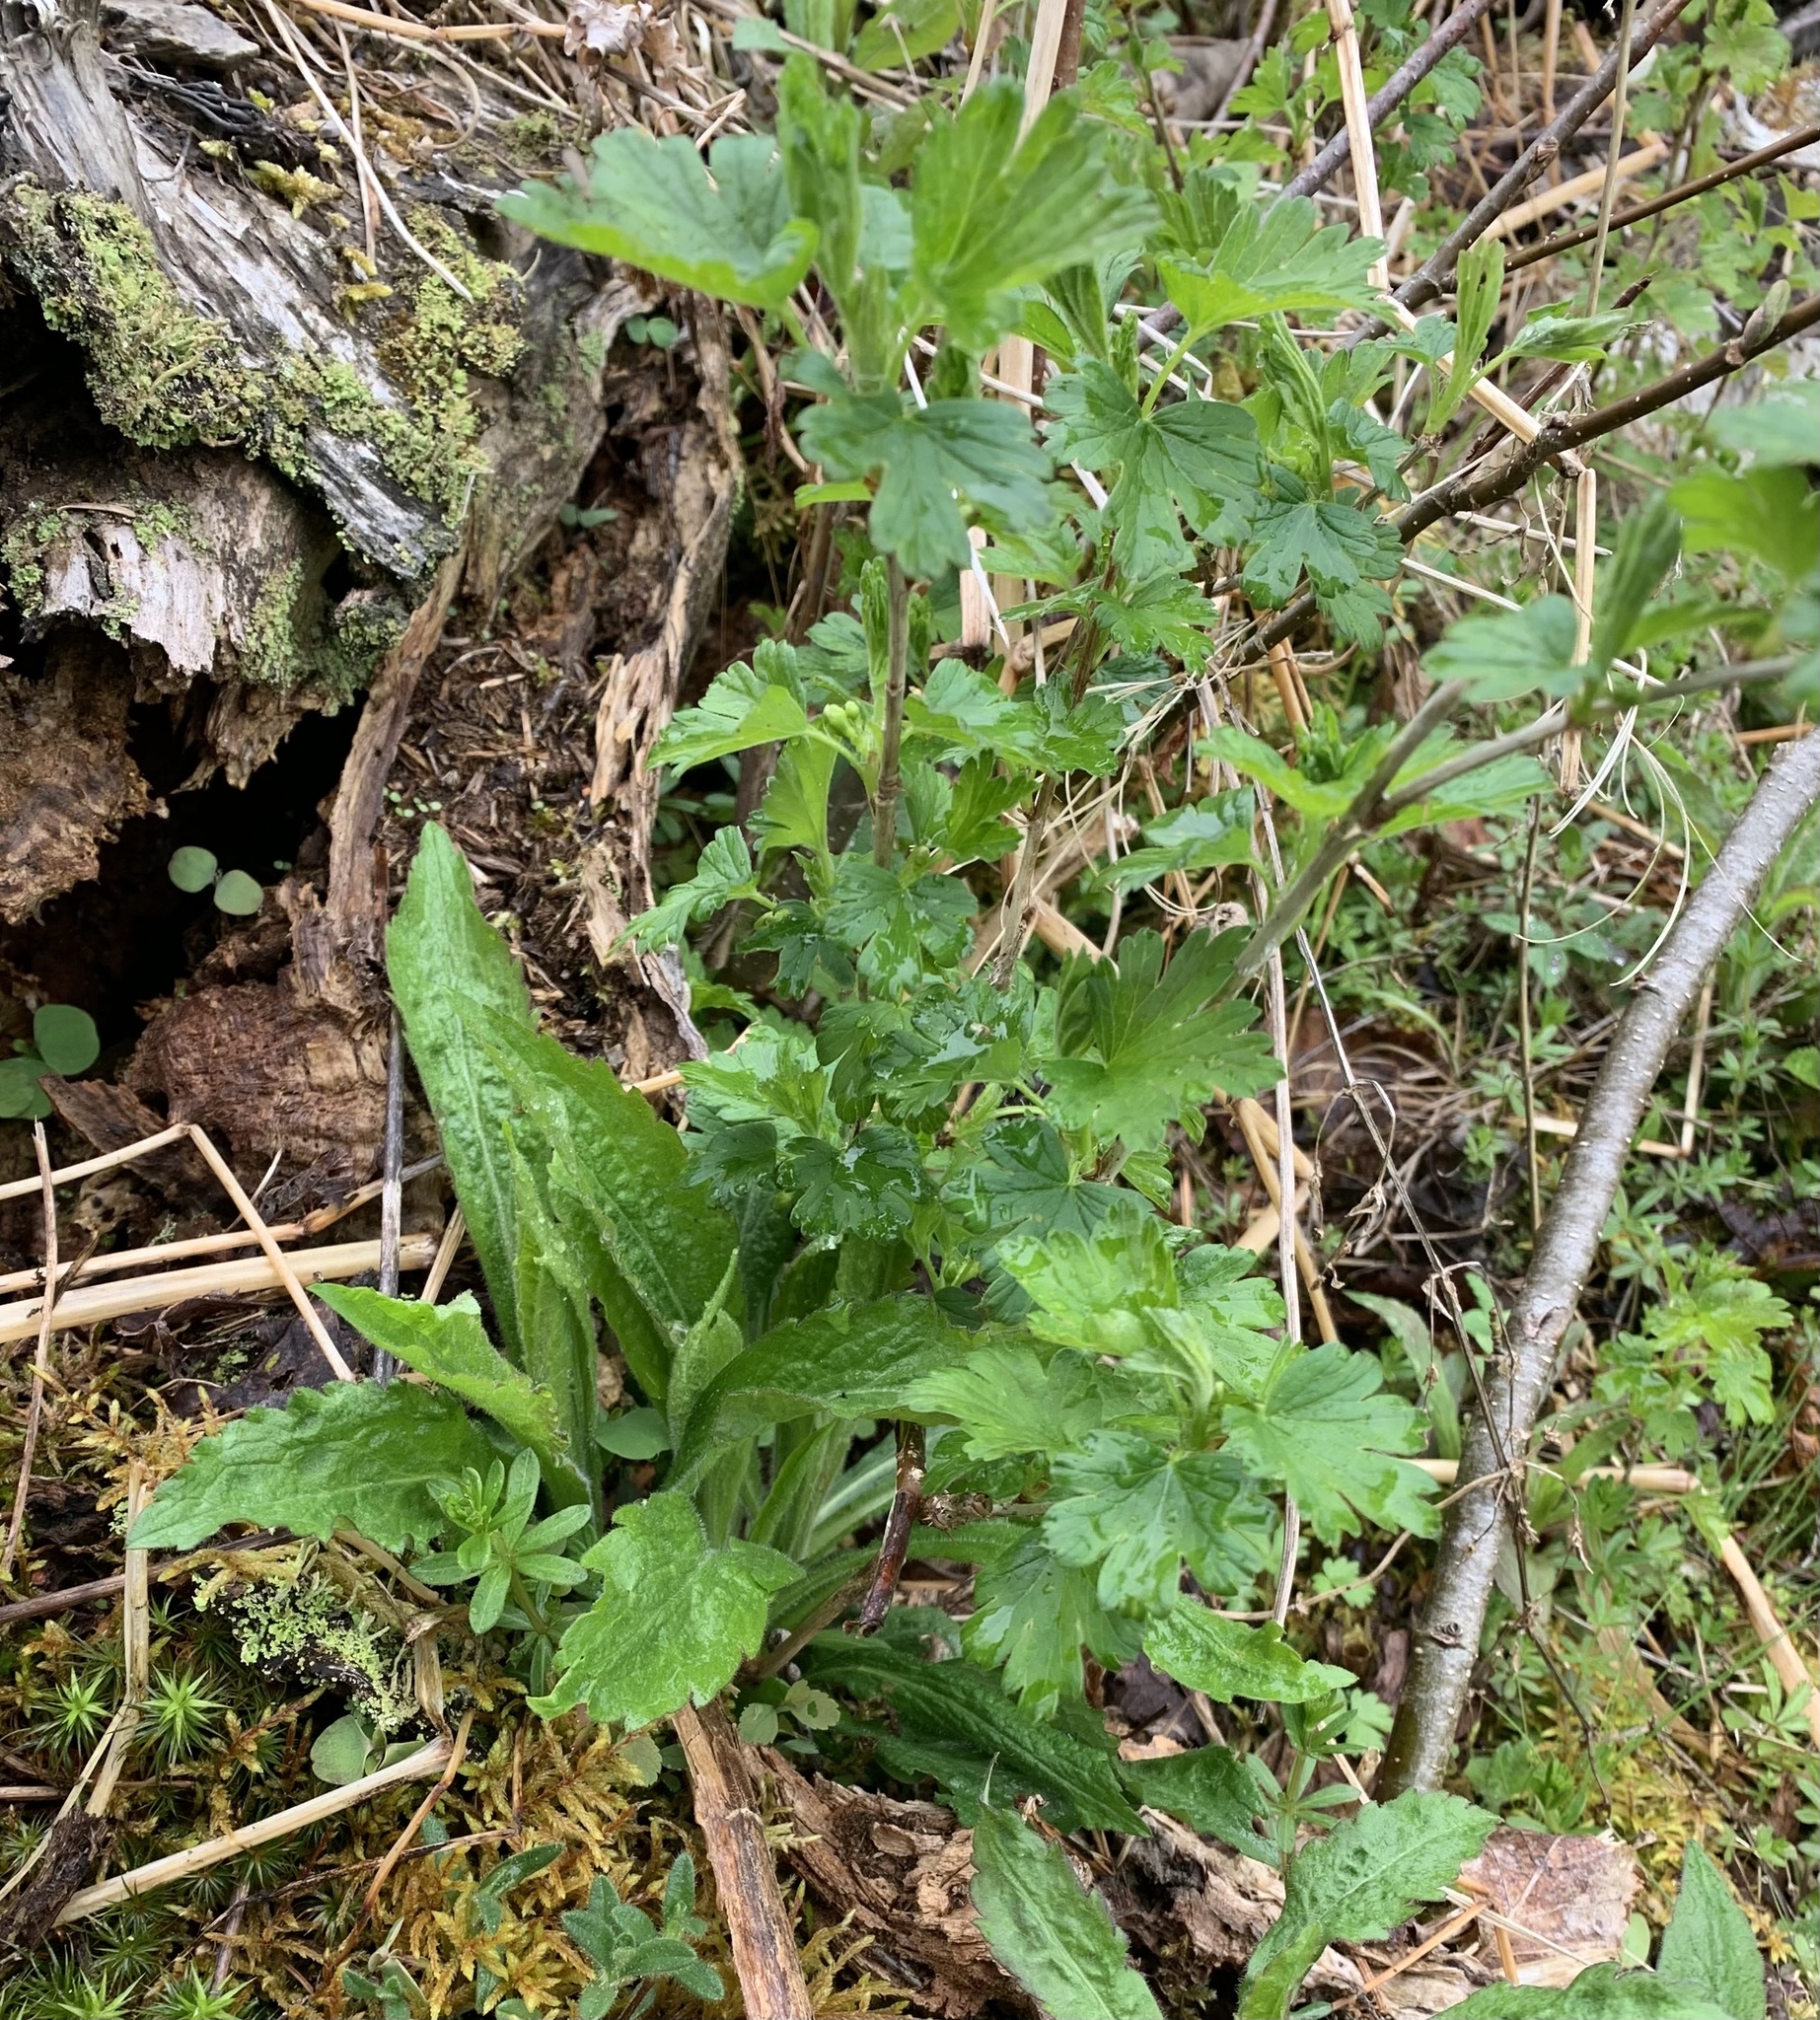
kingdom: Plantae
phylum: Tracheophyta
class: Magnoliopsida
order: Saxifragales
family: Grossulariaceae
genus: Ribes
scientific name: Ribes hirtellum
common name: Hairy gooseberry
